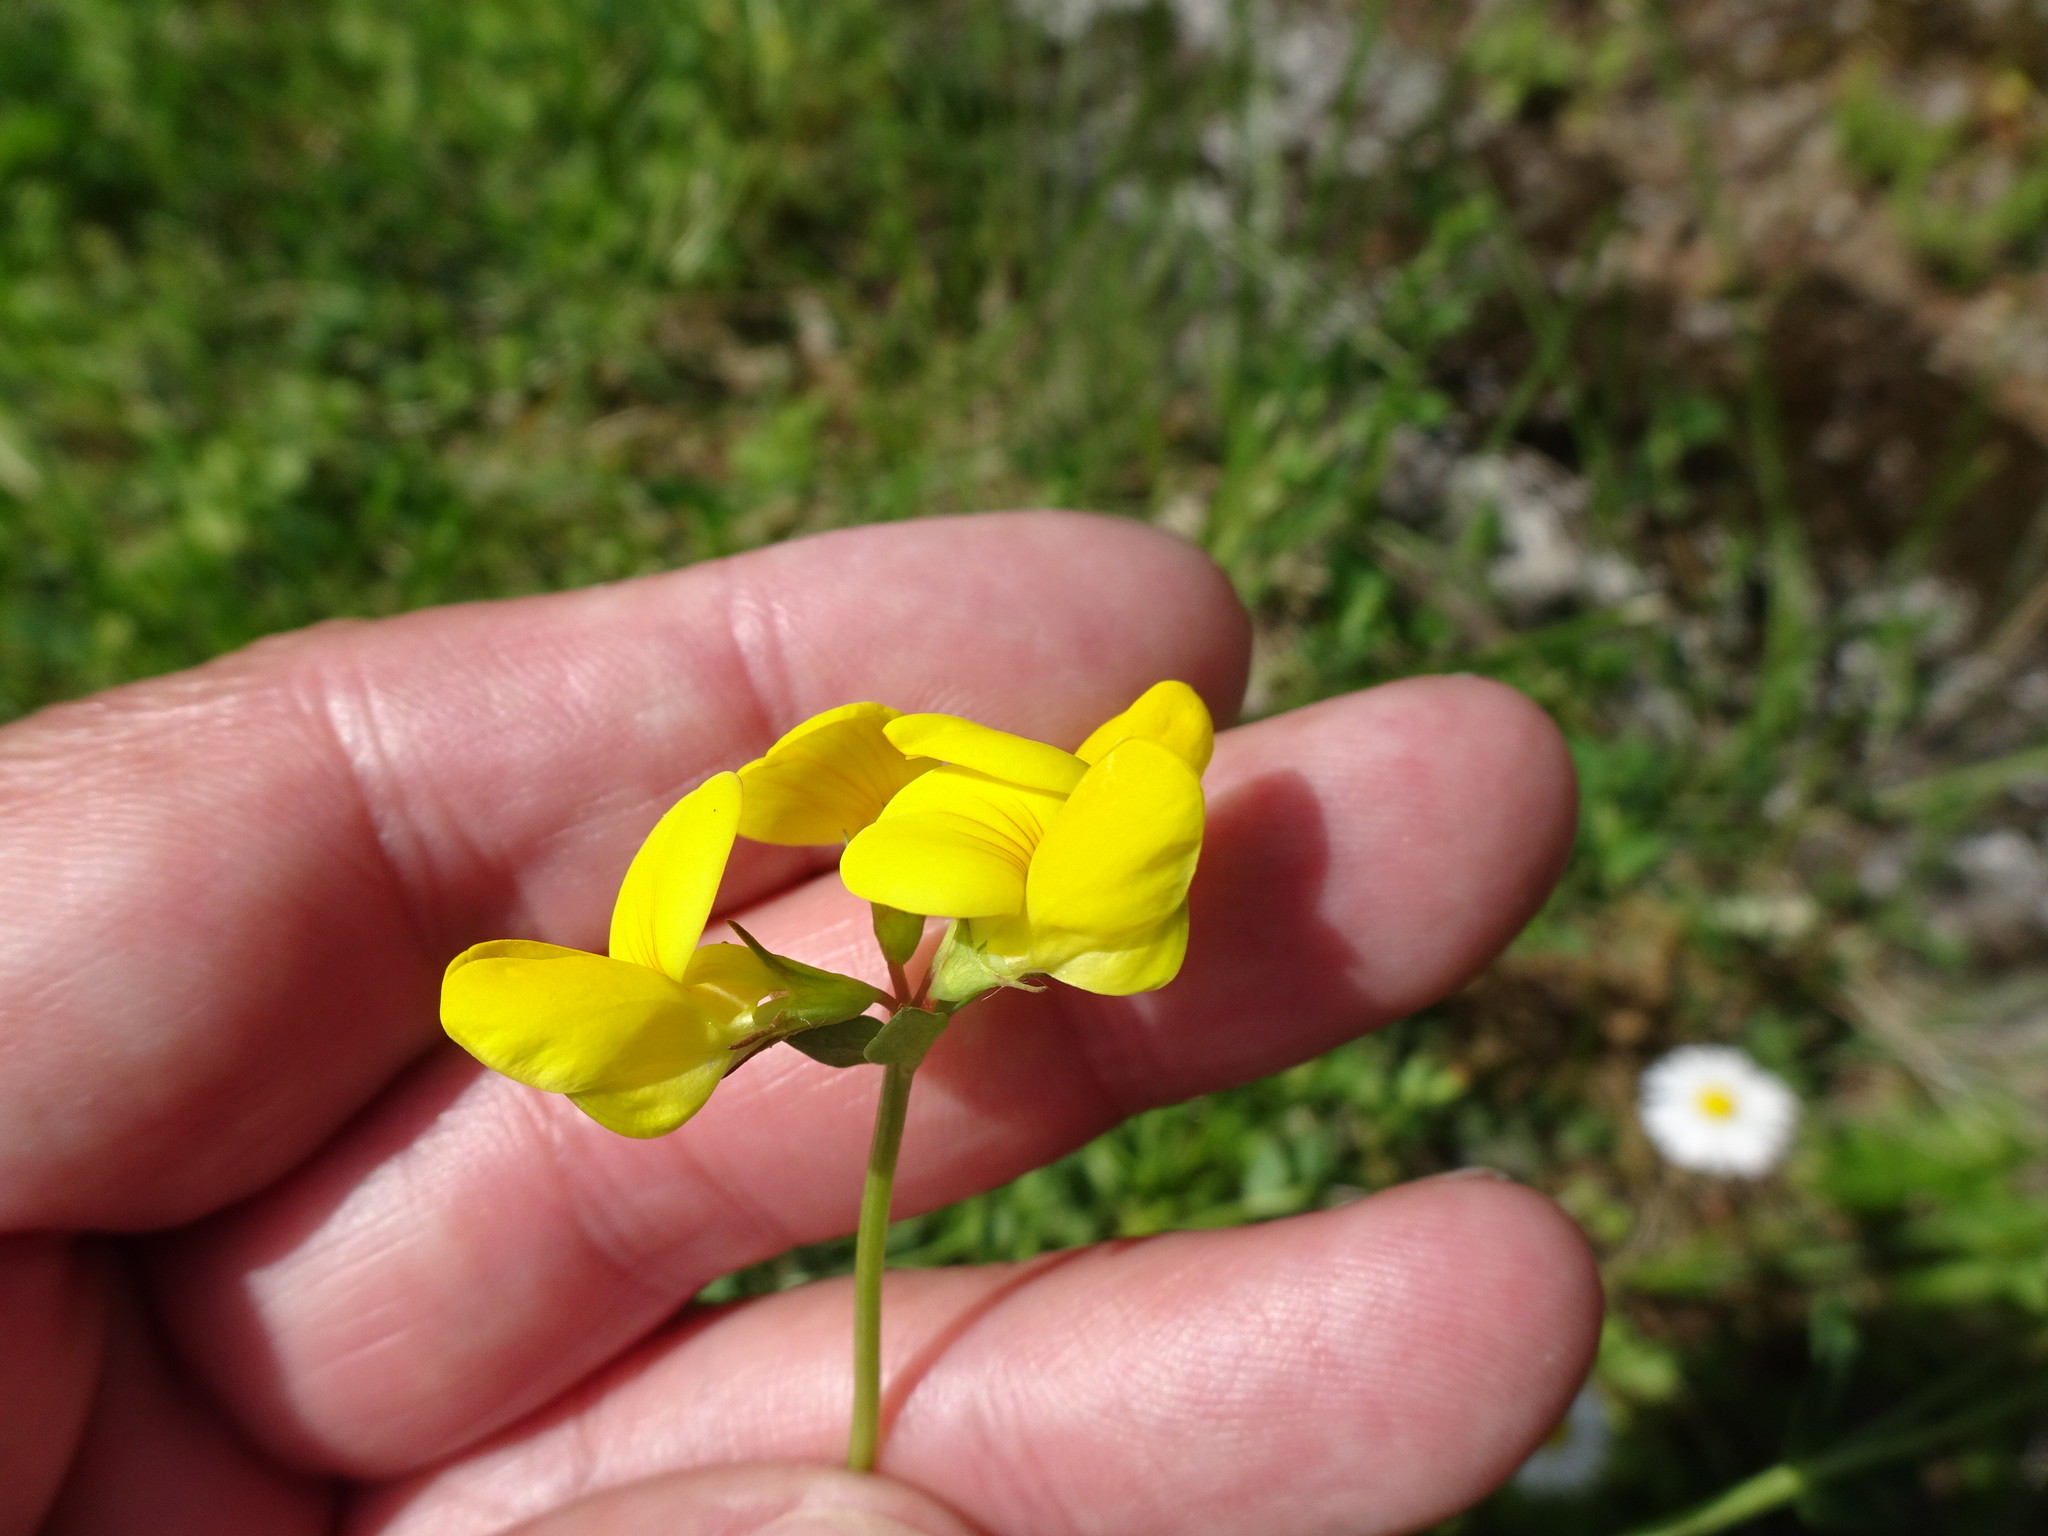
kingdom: Plantae
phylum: Tracheophyta
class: Magnoliopsida
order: Fabales
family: Fabaceae
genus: Lotus
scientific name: Lotus corniculatus
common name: Common bird's-foot-trefoil
